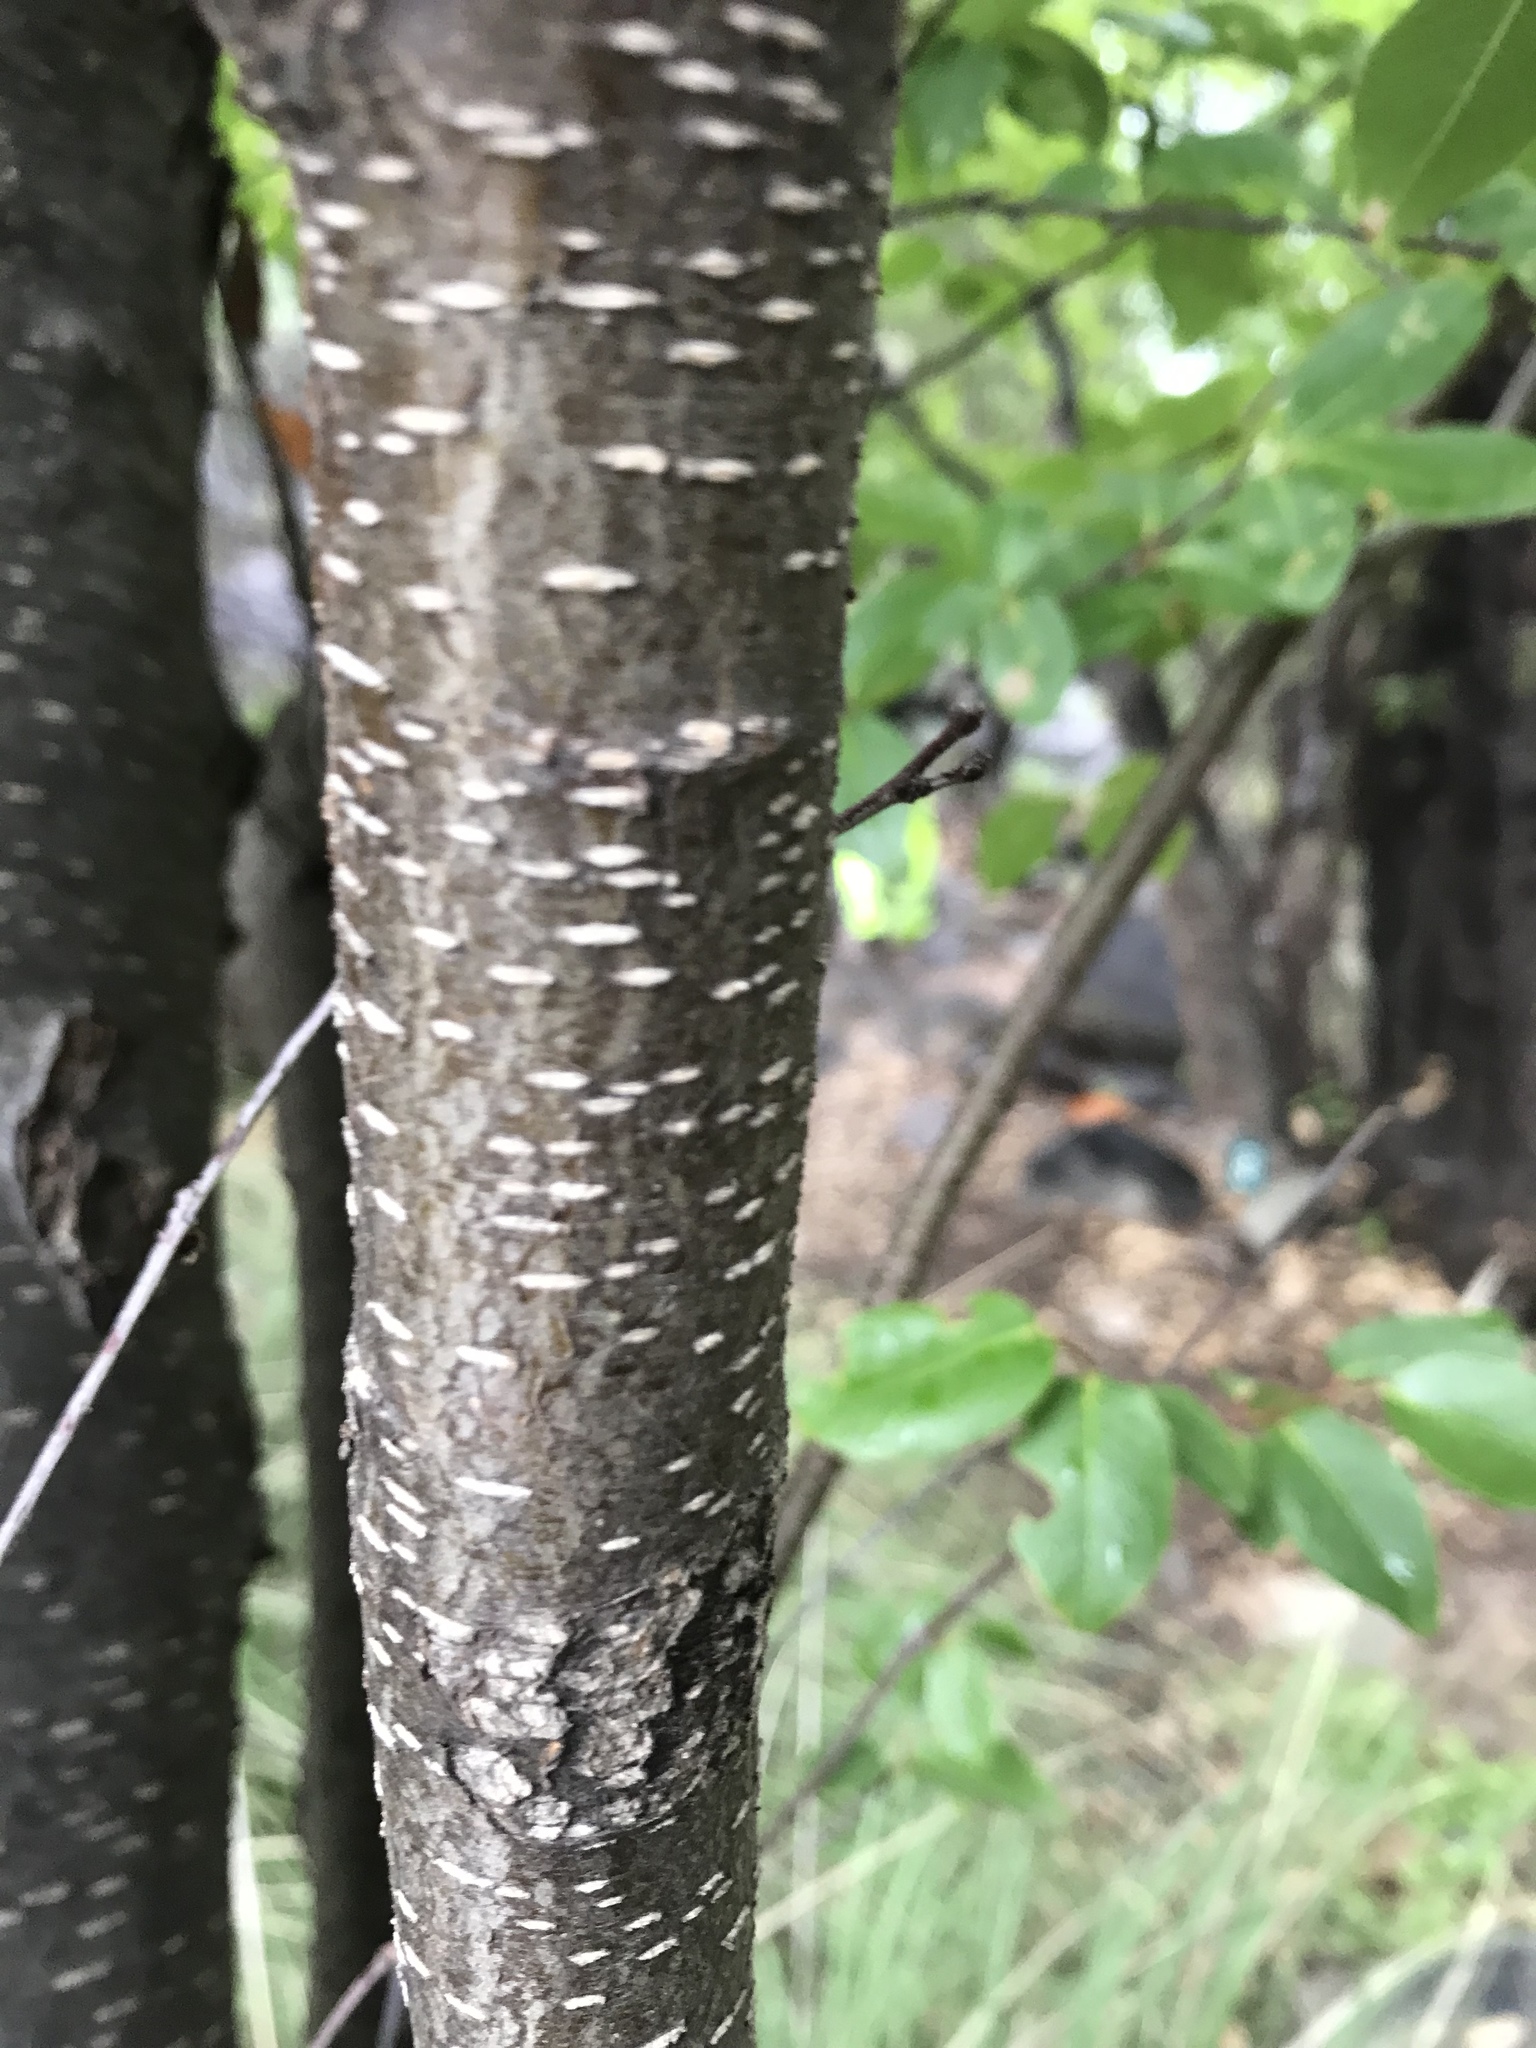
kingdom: Plantae
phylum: Tracheophyta
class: Magnoliopsida
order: Rosales
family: Rosaceae
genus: Prunus
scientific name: Prunus serotina
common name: Black cherry
